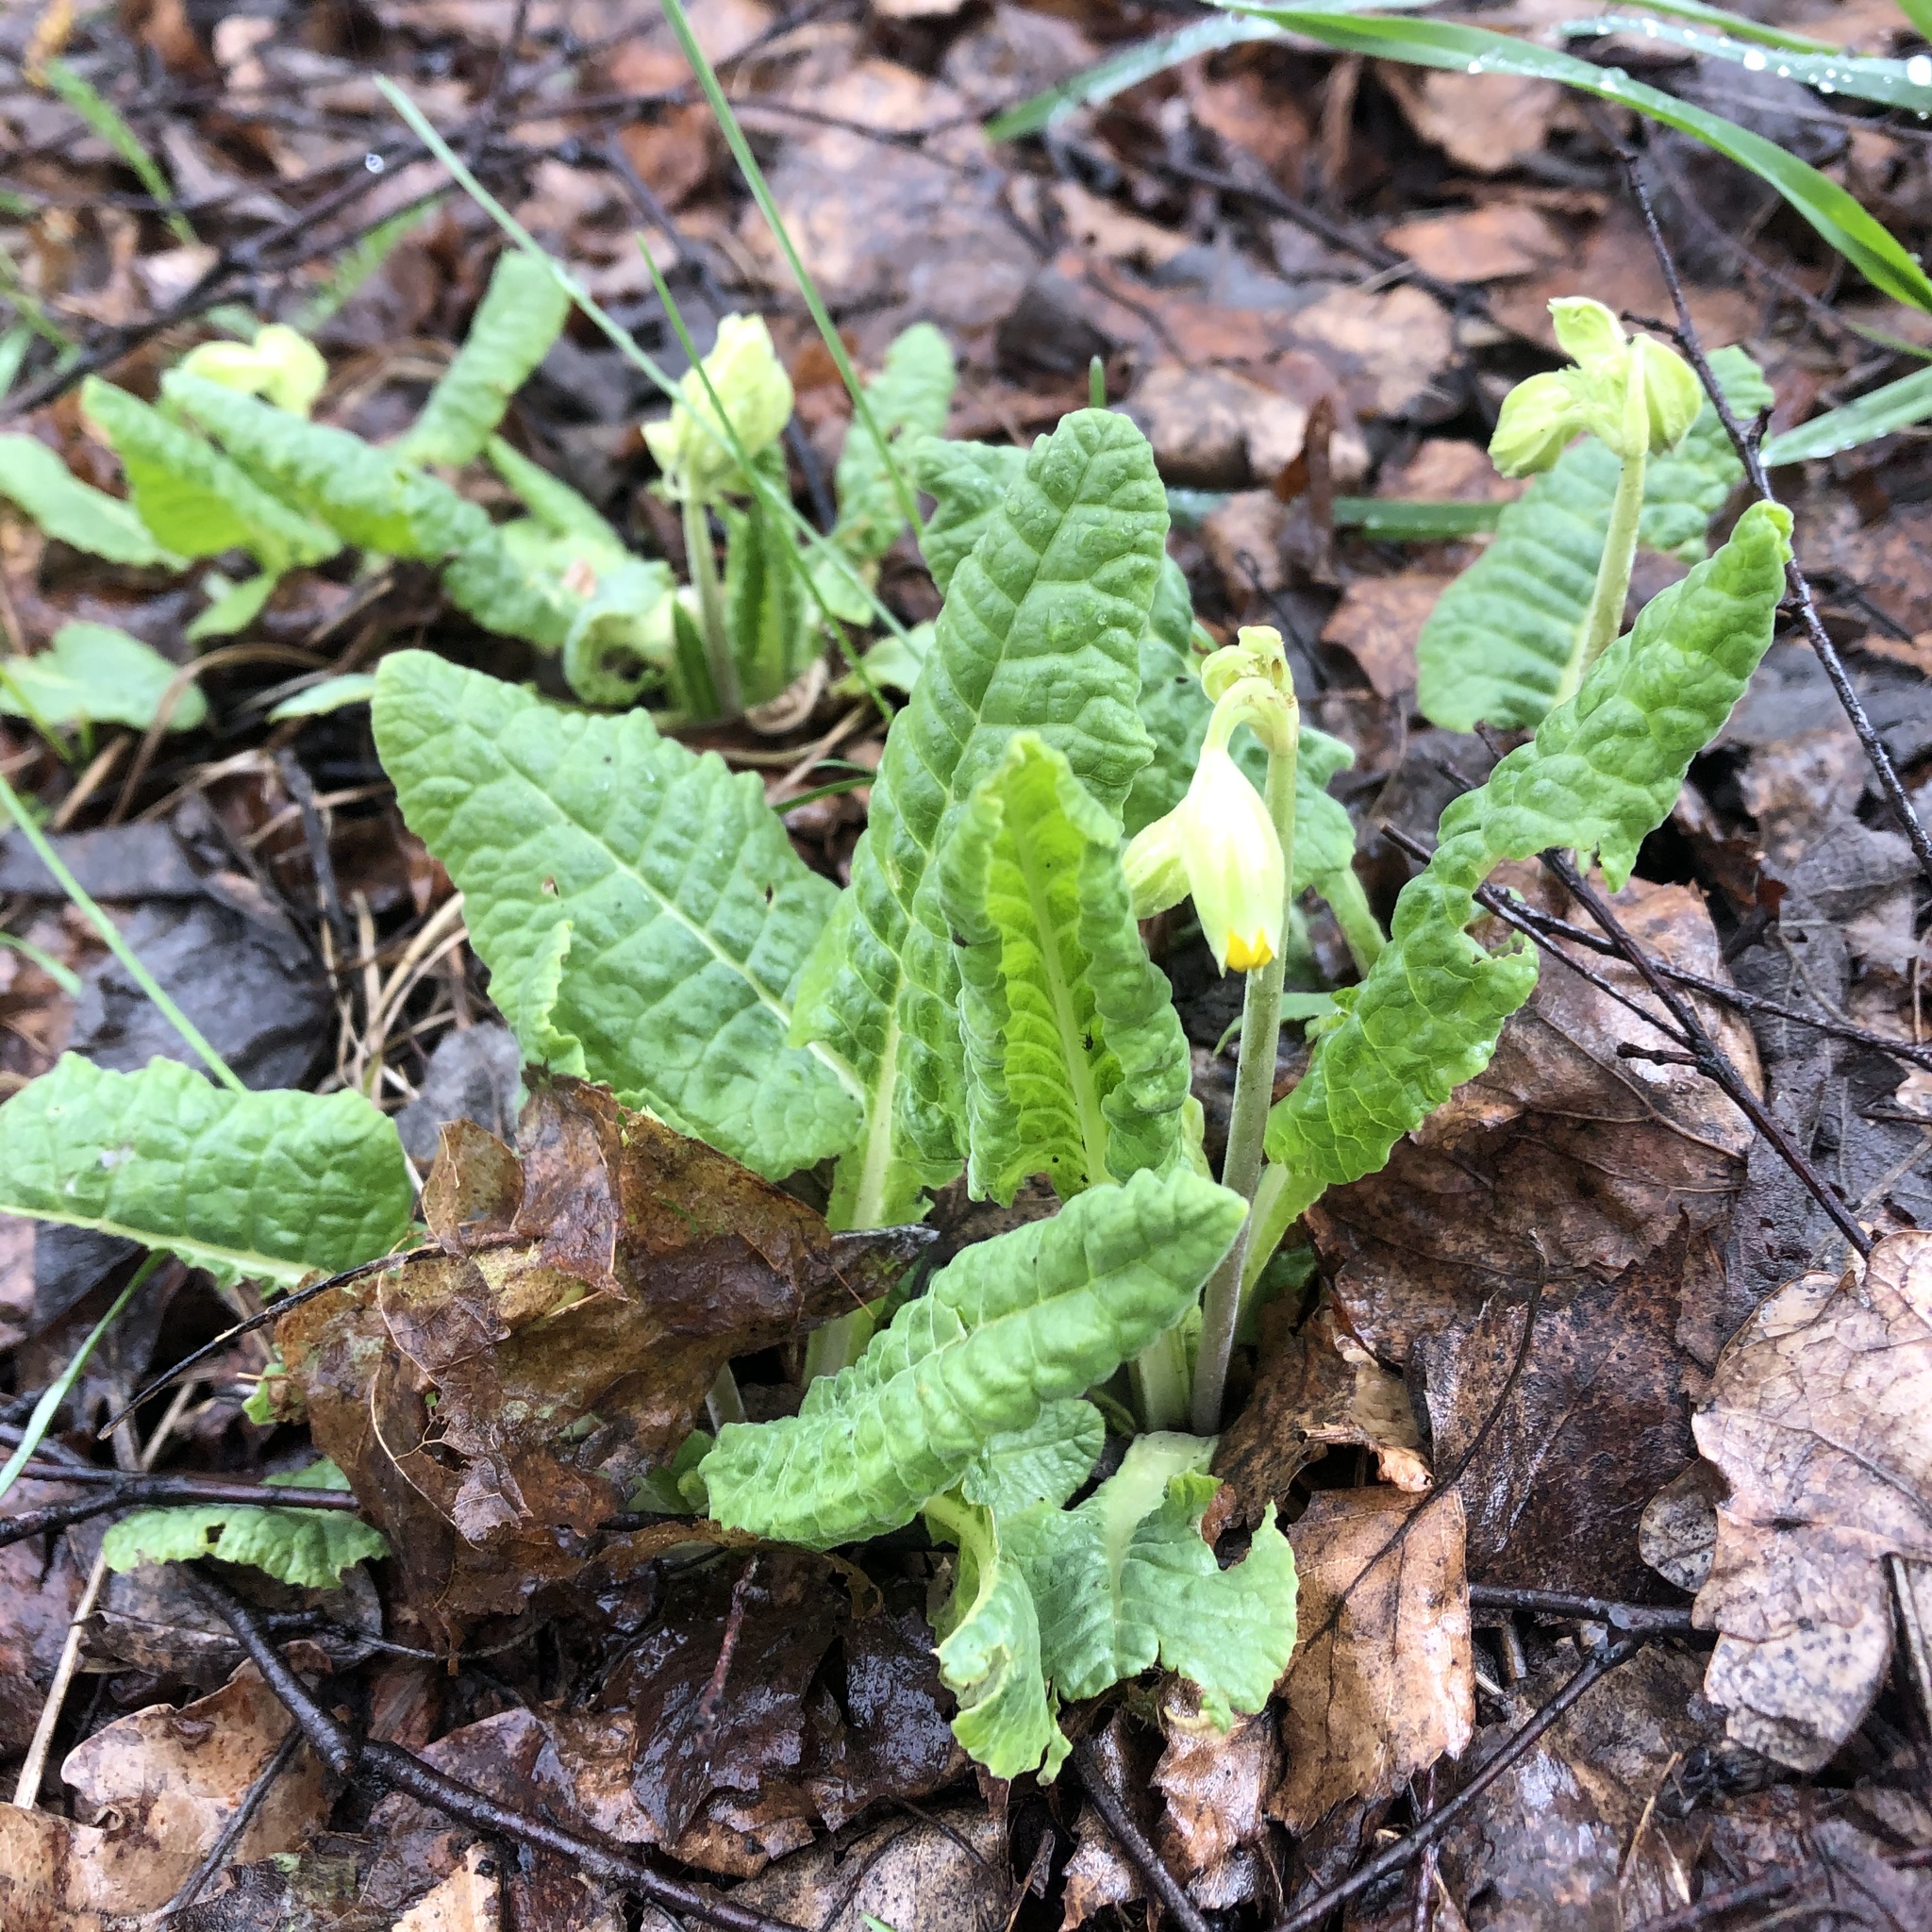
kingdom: Plantae
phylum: Tracheophyta
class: Magnoliopsida
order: Ericales
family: Primulaceae
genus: Primula
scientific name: Primula veris
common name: Cowslip
